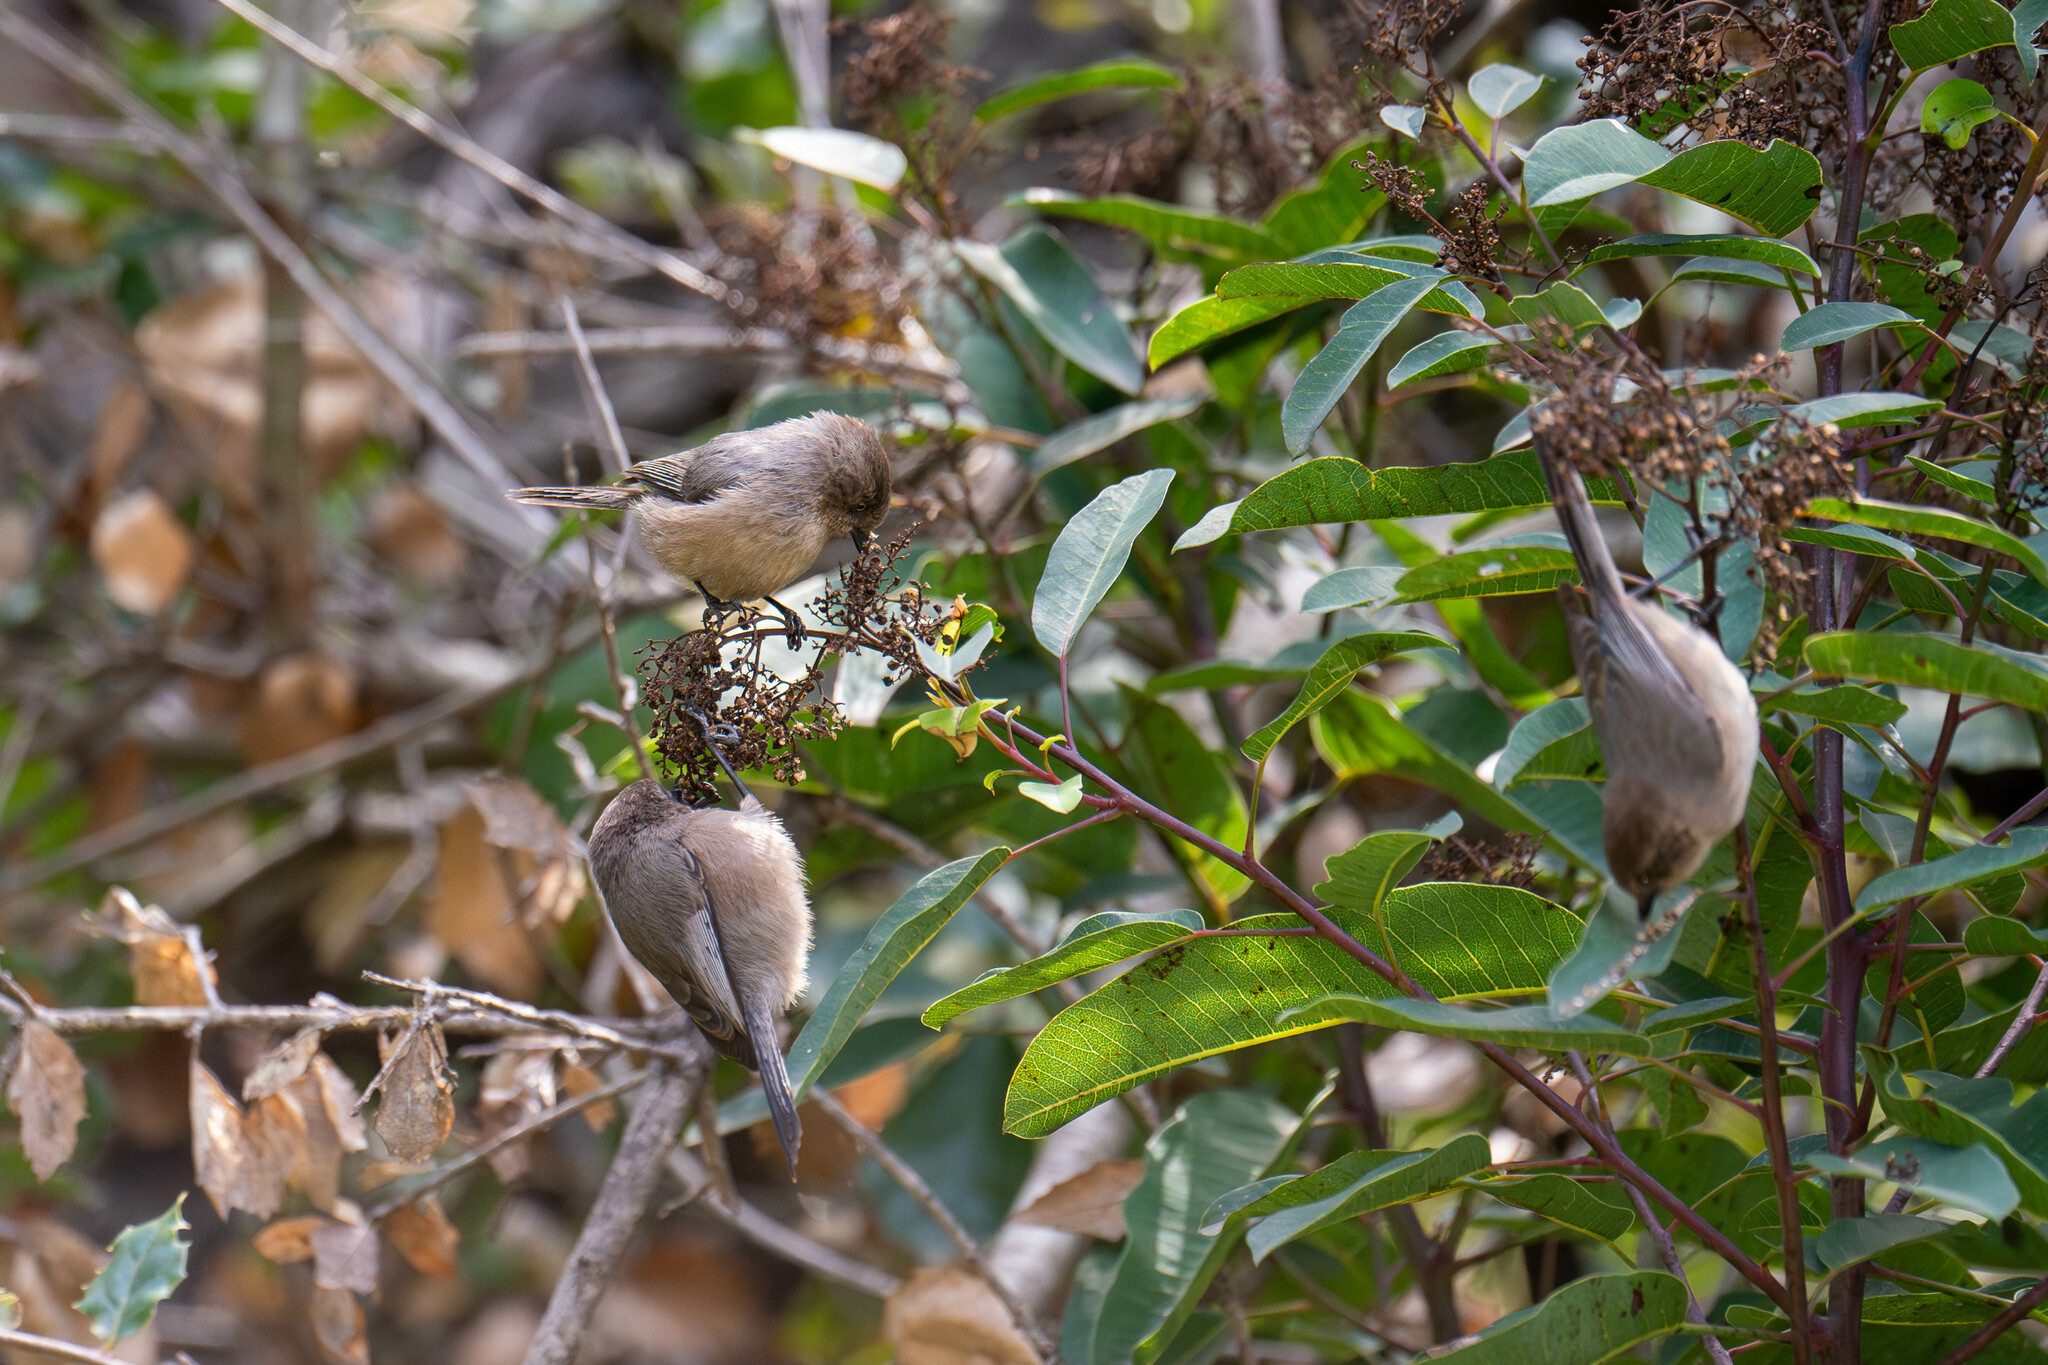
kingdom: Animalia
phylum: Chordata
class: Aves
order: Passeriformes
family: Aegithalidae
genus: Psaltriparus
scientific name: Psaltriparus minimus
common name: American bushtit
